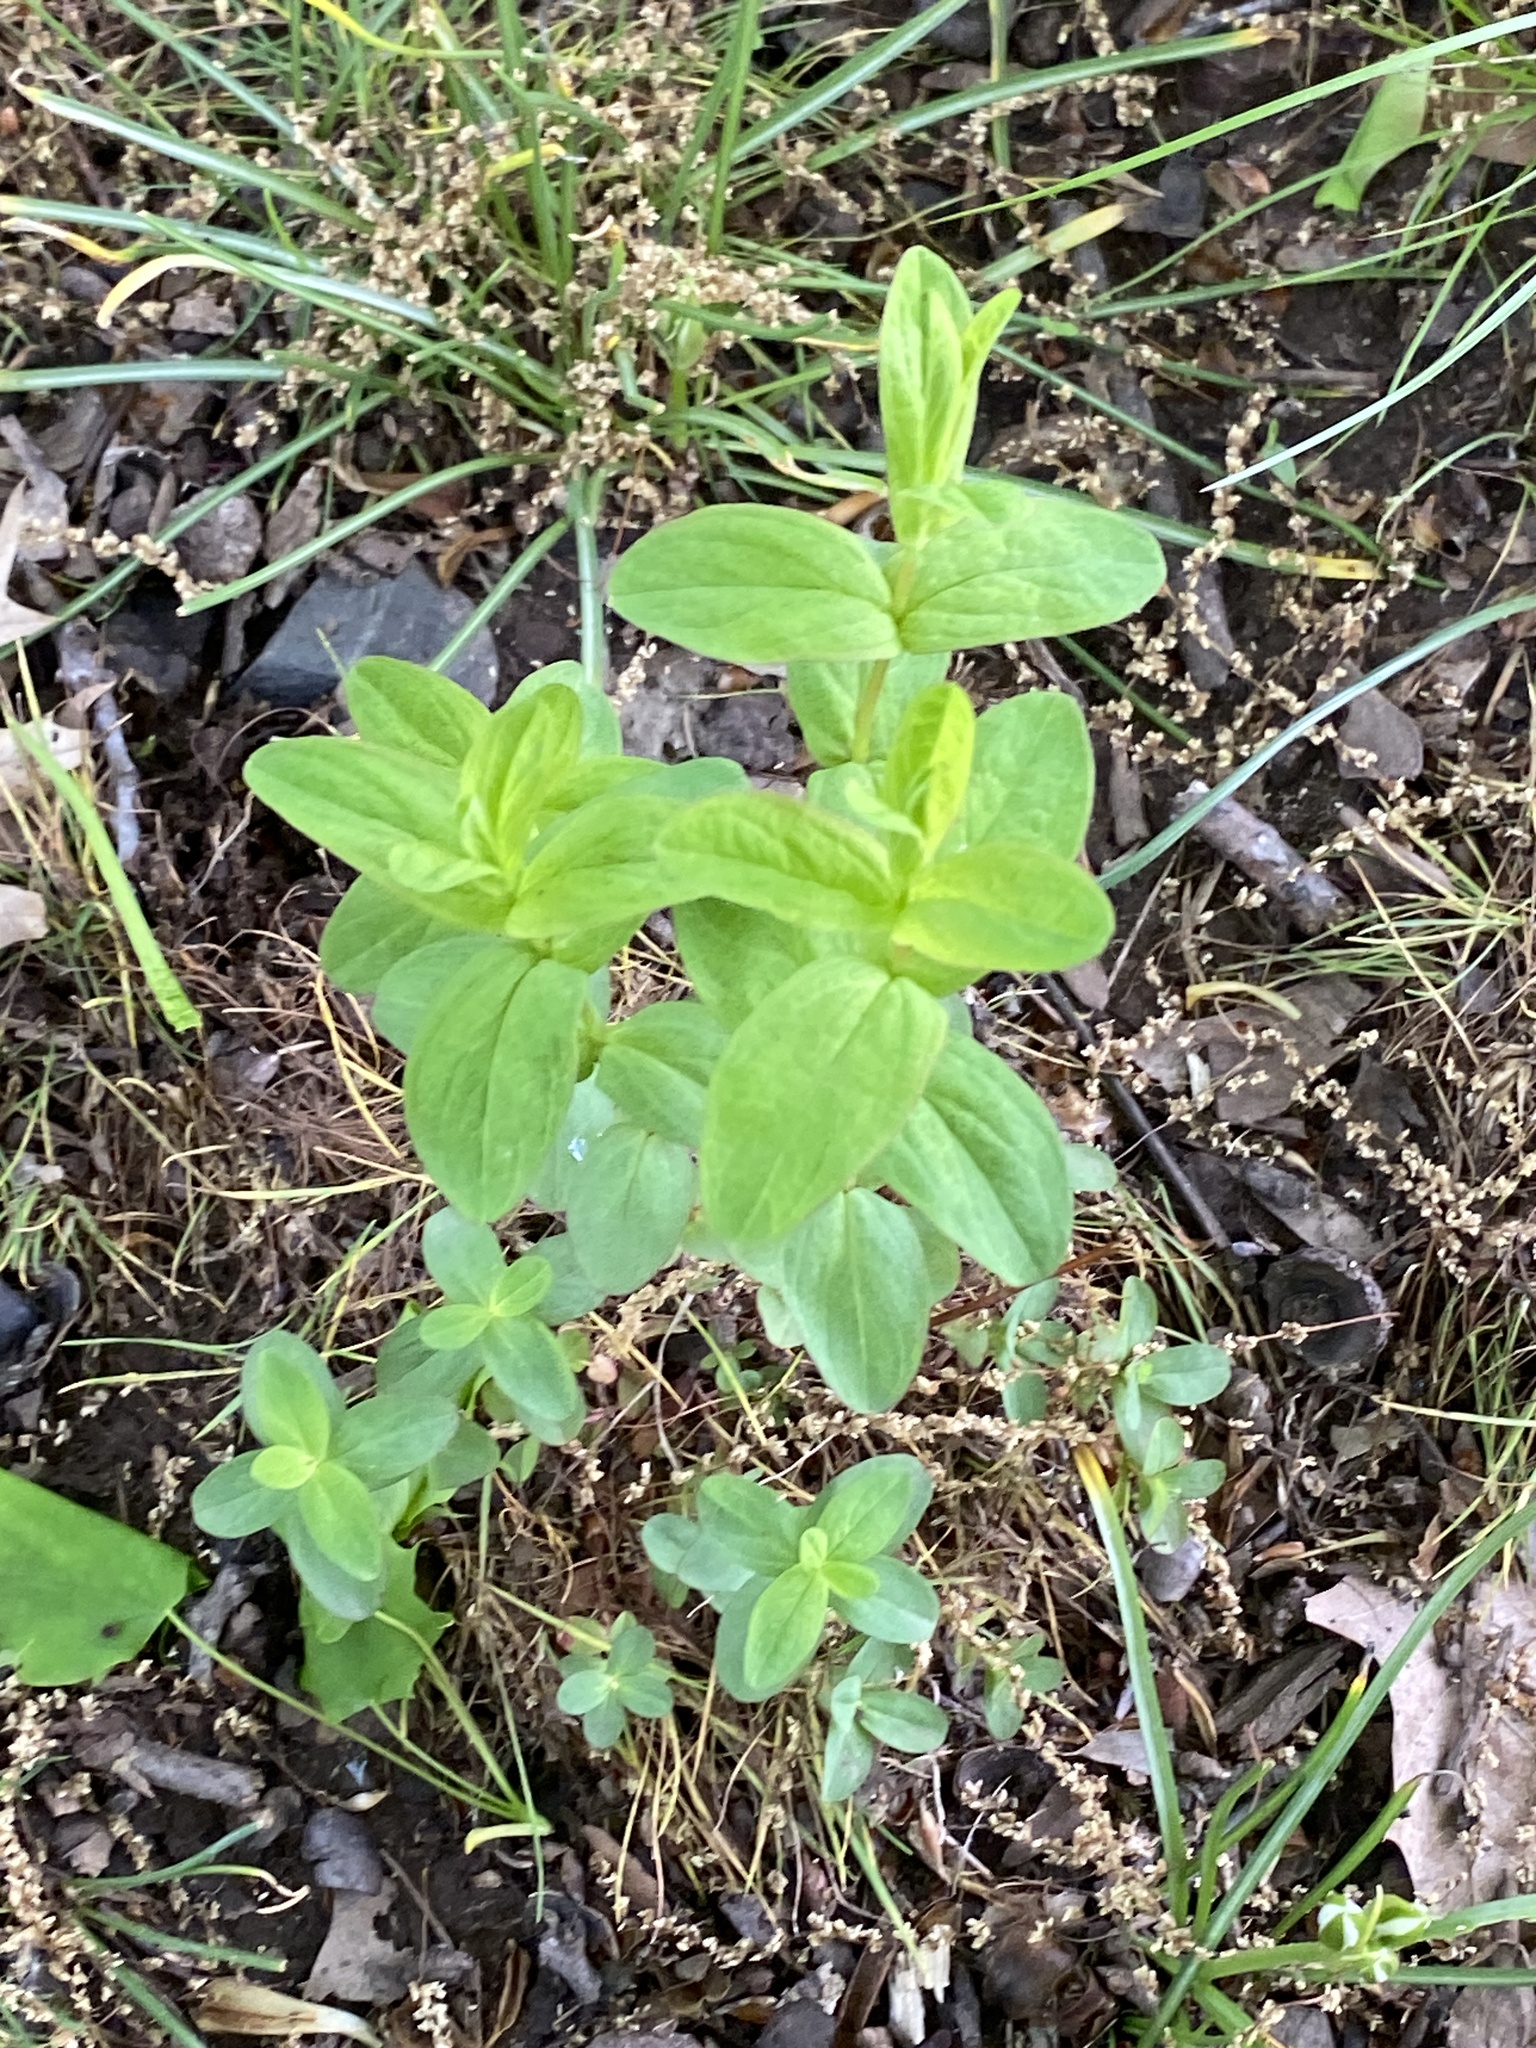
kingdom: Plantae
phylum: Tracheophyta
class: Magnoliopsida
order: Malpighiales
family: Hypericaceae
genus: Hypericum
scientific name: Hypericum punctatum
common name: Spotted st. john's-wort
